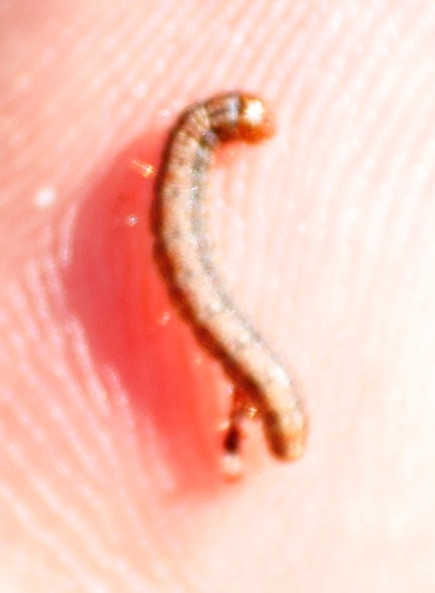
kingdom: Animalia
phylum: Arthropoda
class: Insecta
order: Lepidoptera
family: Pyralidae
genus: Triphassa
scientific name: Triphassa stalachtis
